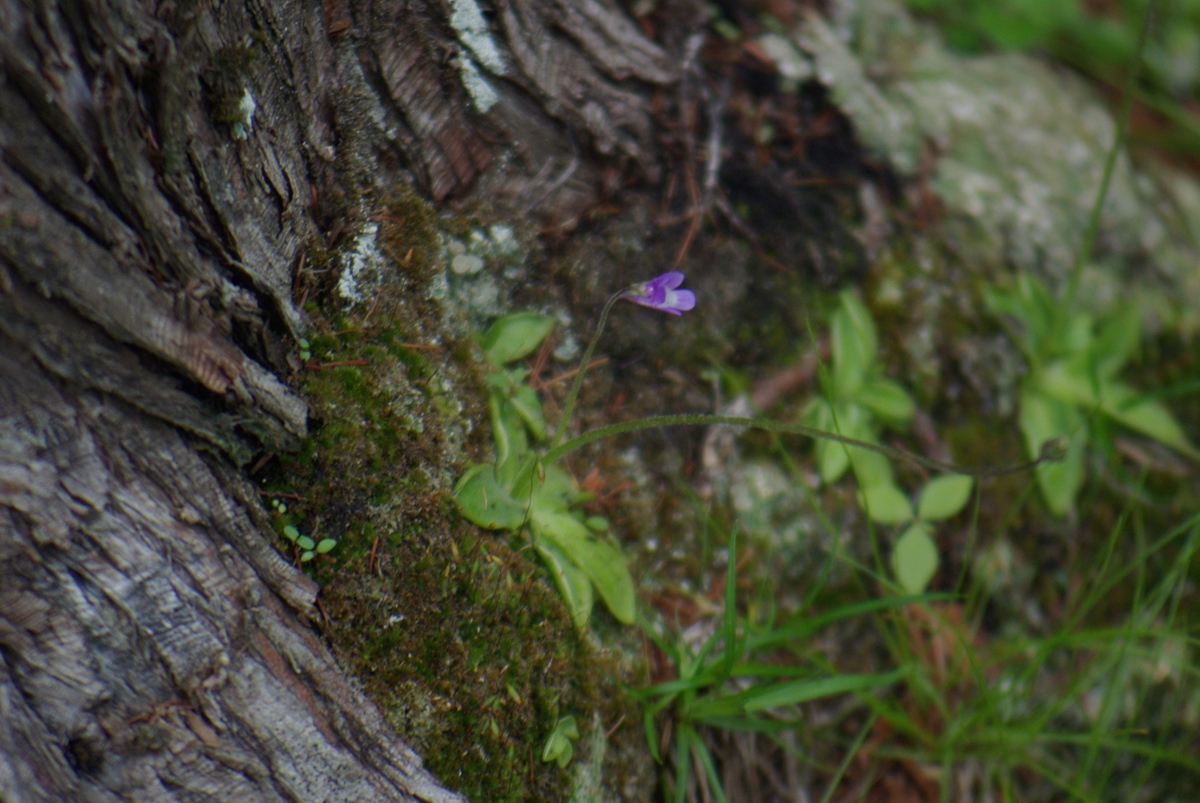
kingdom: Plantae
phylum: Tracheophyta
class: Magnoliopsida
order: Lamiales
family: Lentibulariaceae
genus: Pinguicula
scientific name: Pinguicula vulgaris
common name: Common butterwort
